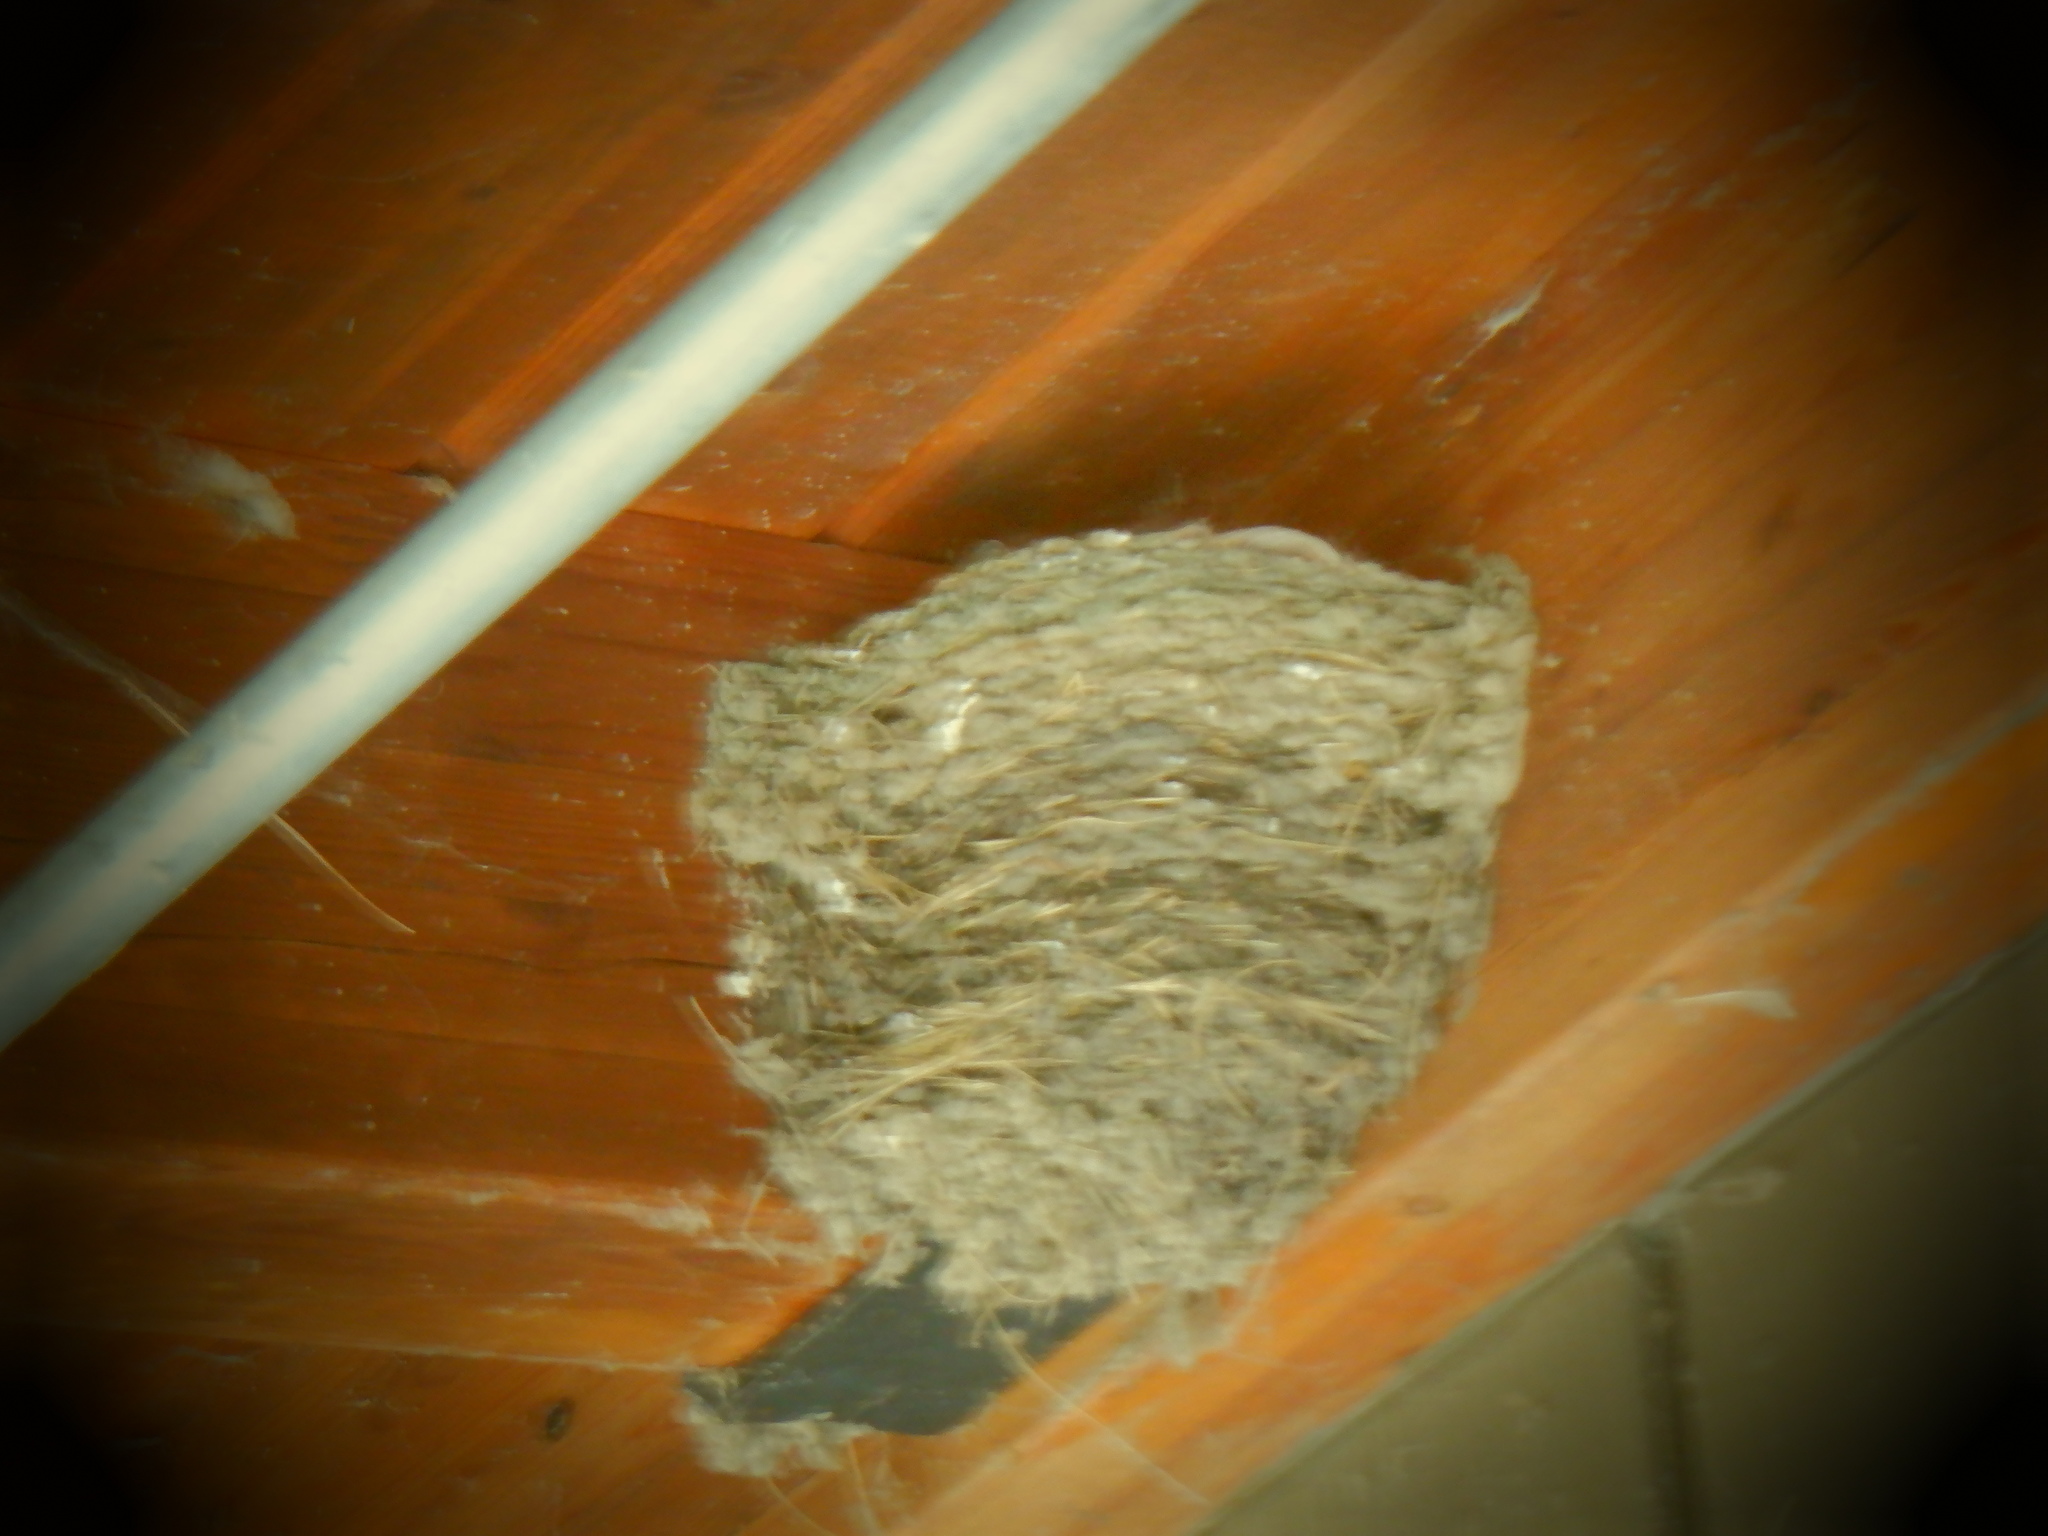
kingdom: Animalia
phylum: Chordata
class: Aves
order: Passeriformes
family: Hirundinidae
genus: Hirundo
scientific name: Hirundo rustica
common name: Barn swallow
